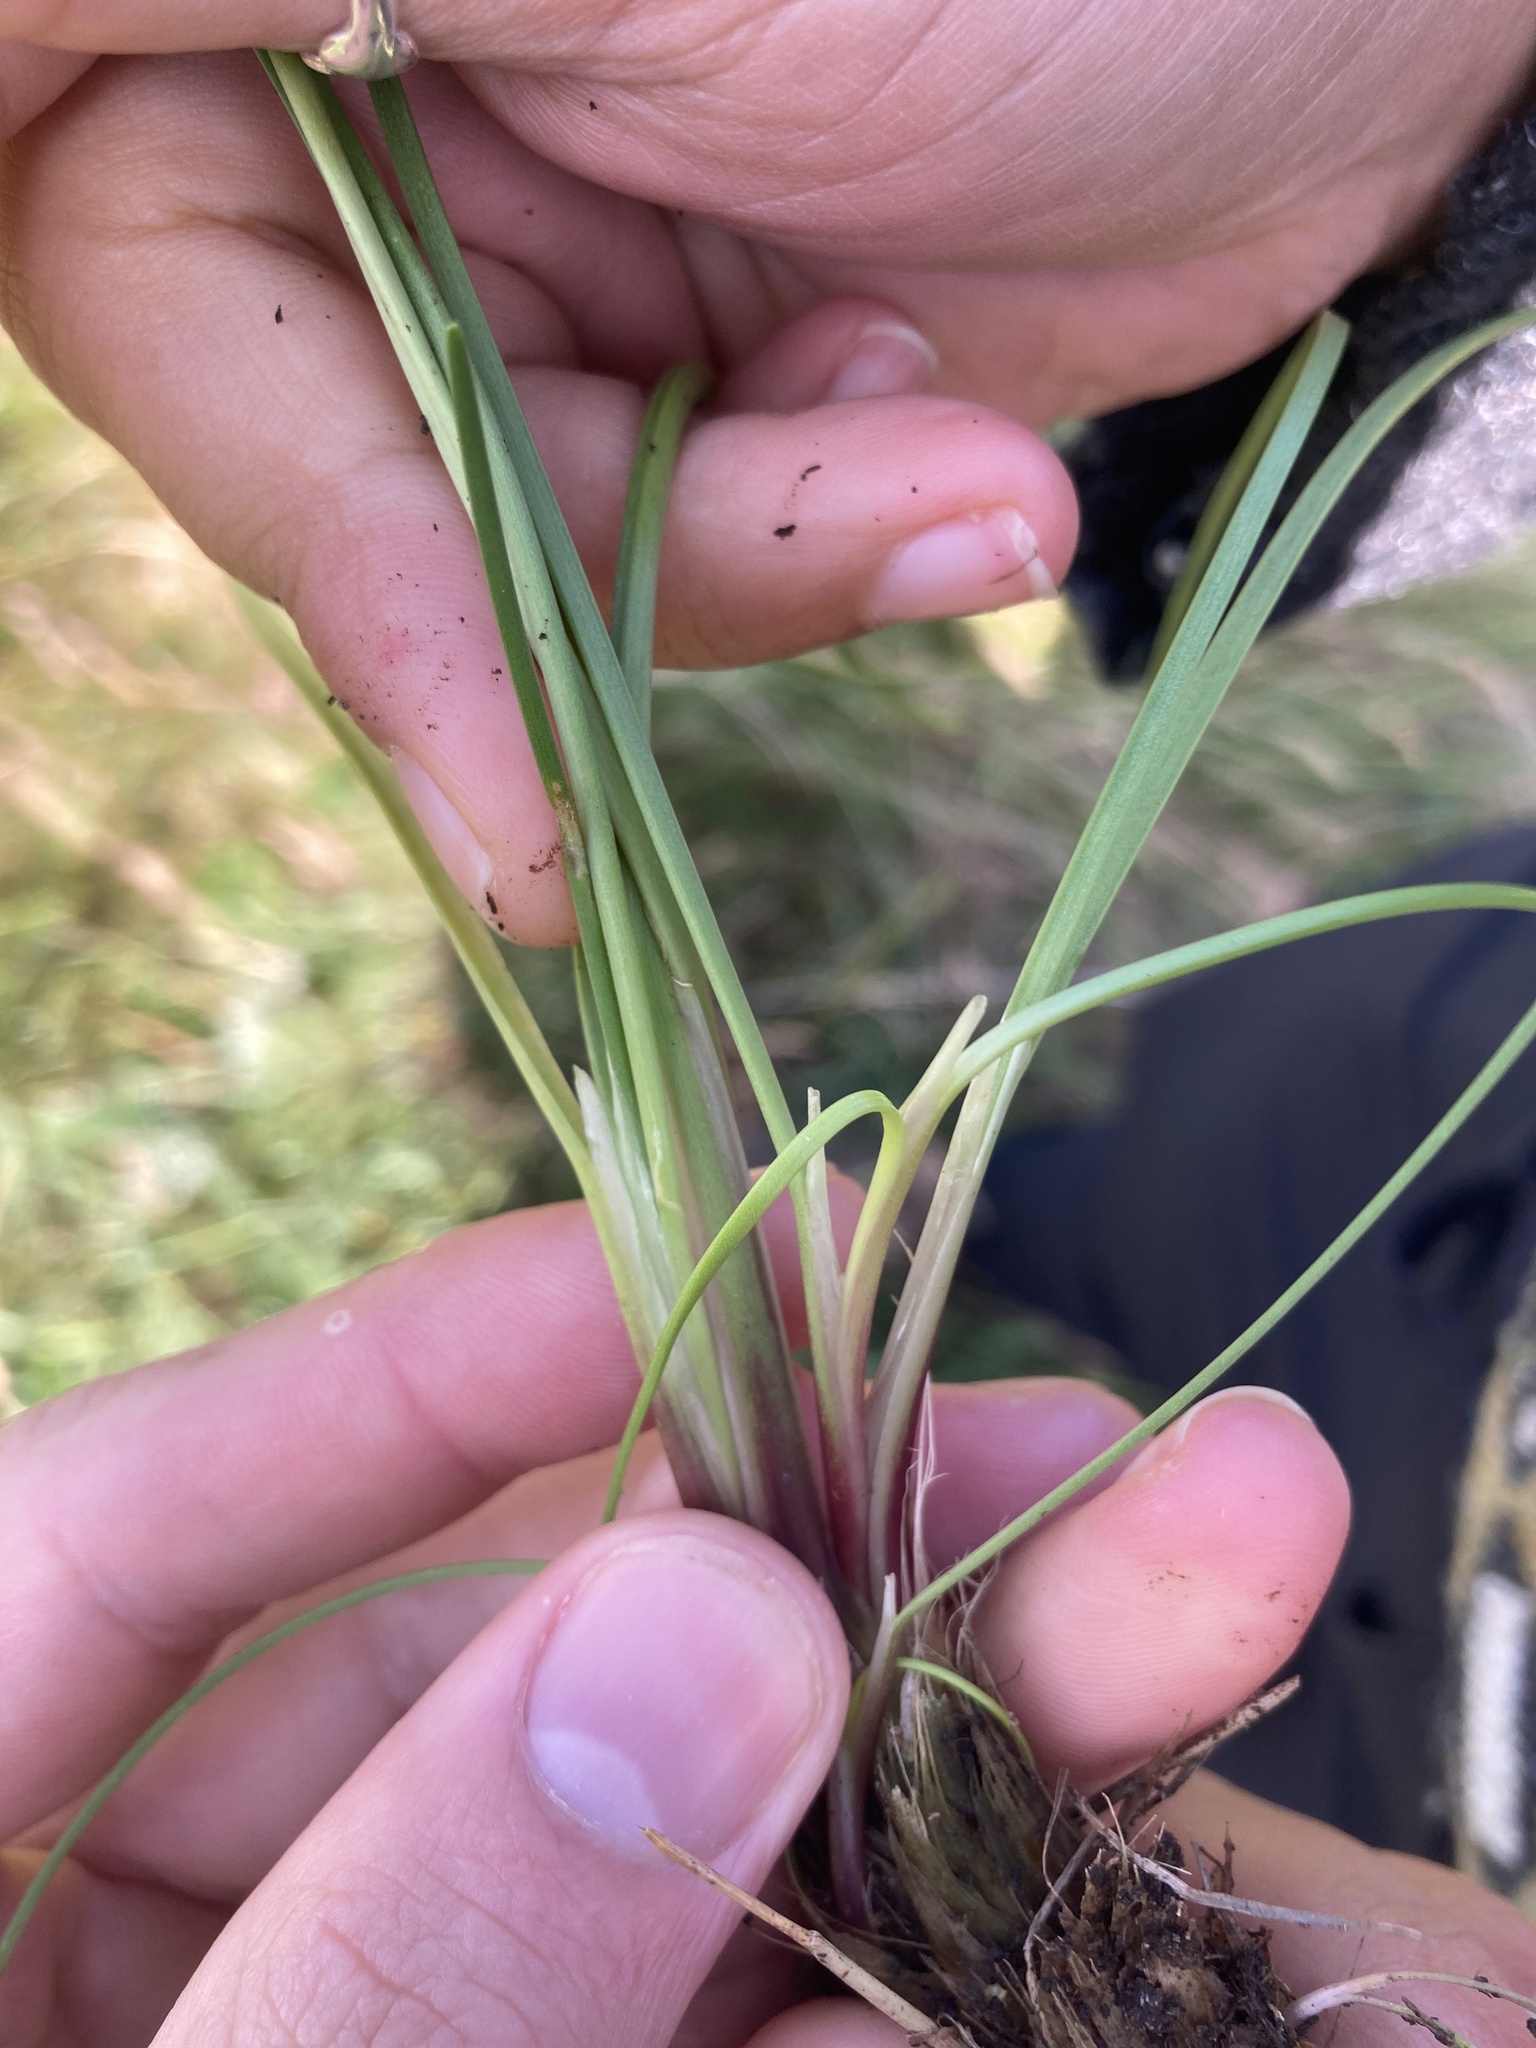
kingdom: Plantae
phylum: Tracheophyta
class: Liliopsida
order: Alismatales
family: Juncaginaceae
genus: Triglochin
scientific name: Triglochin maritima
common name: Sea arrowgrass
